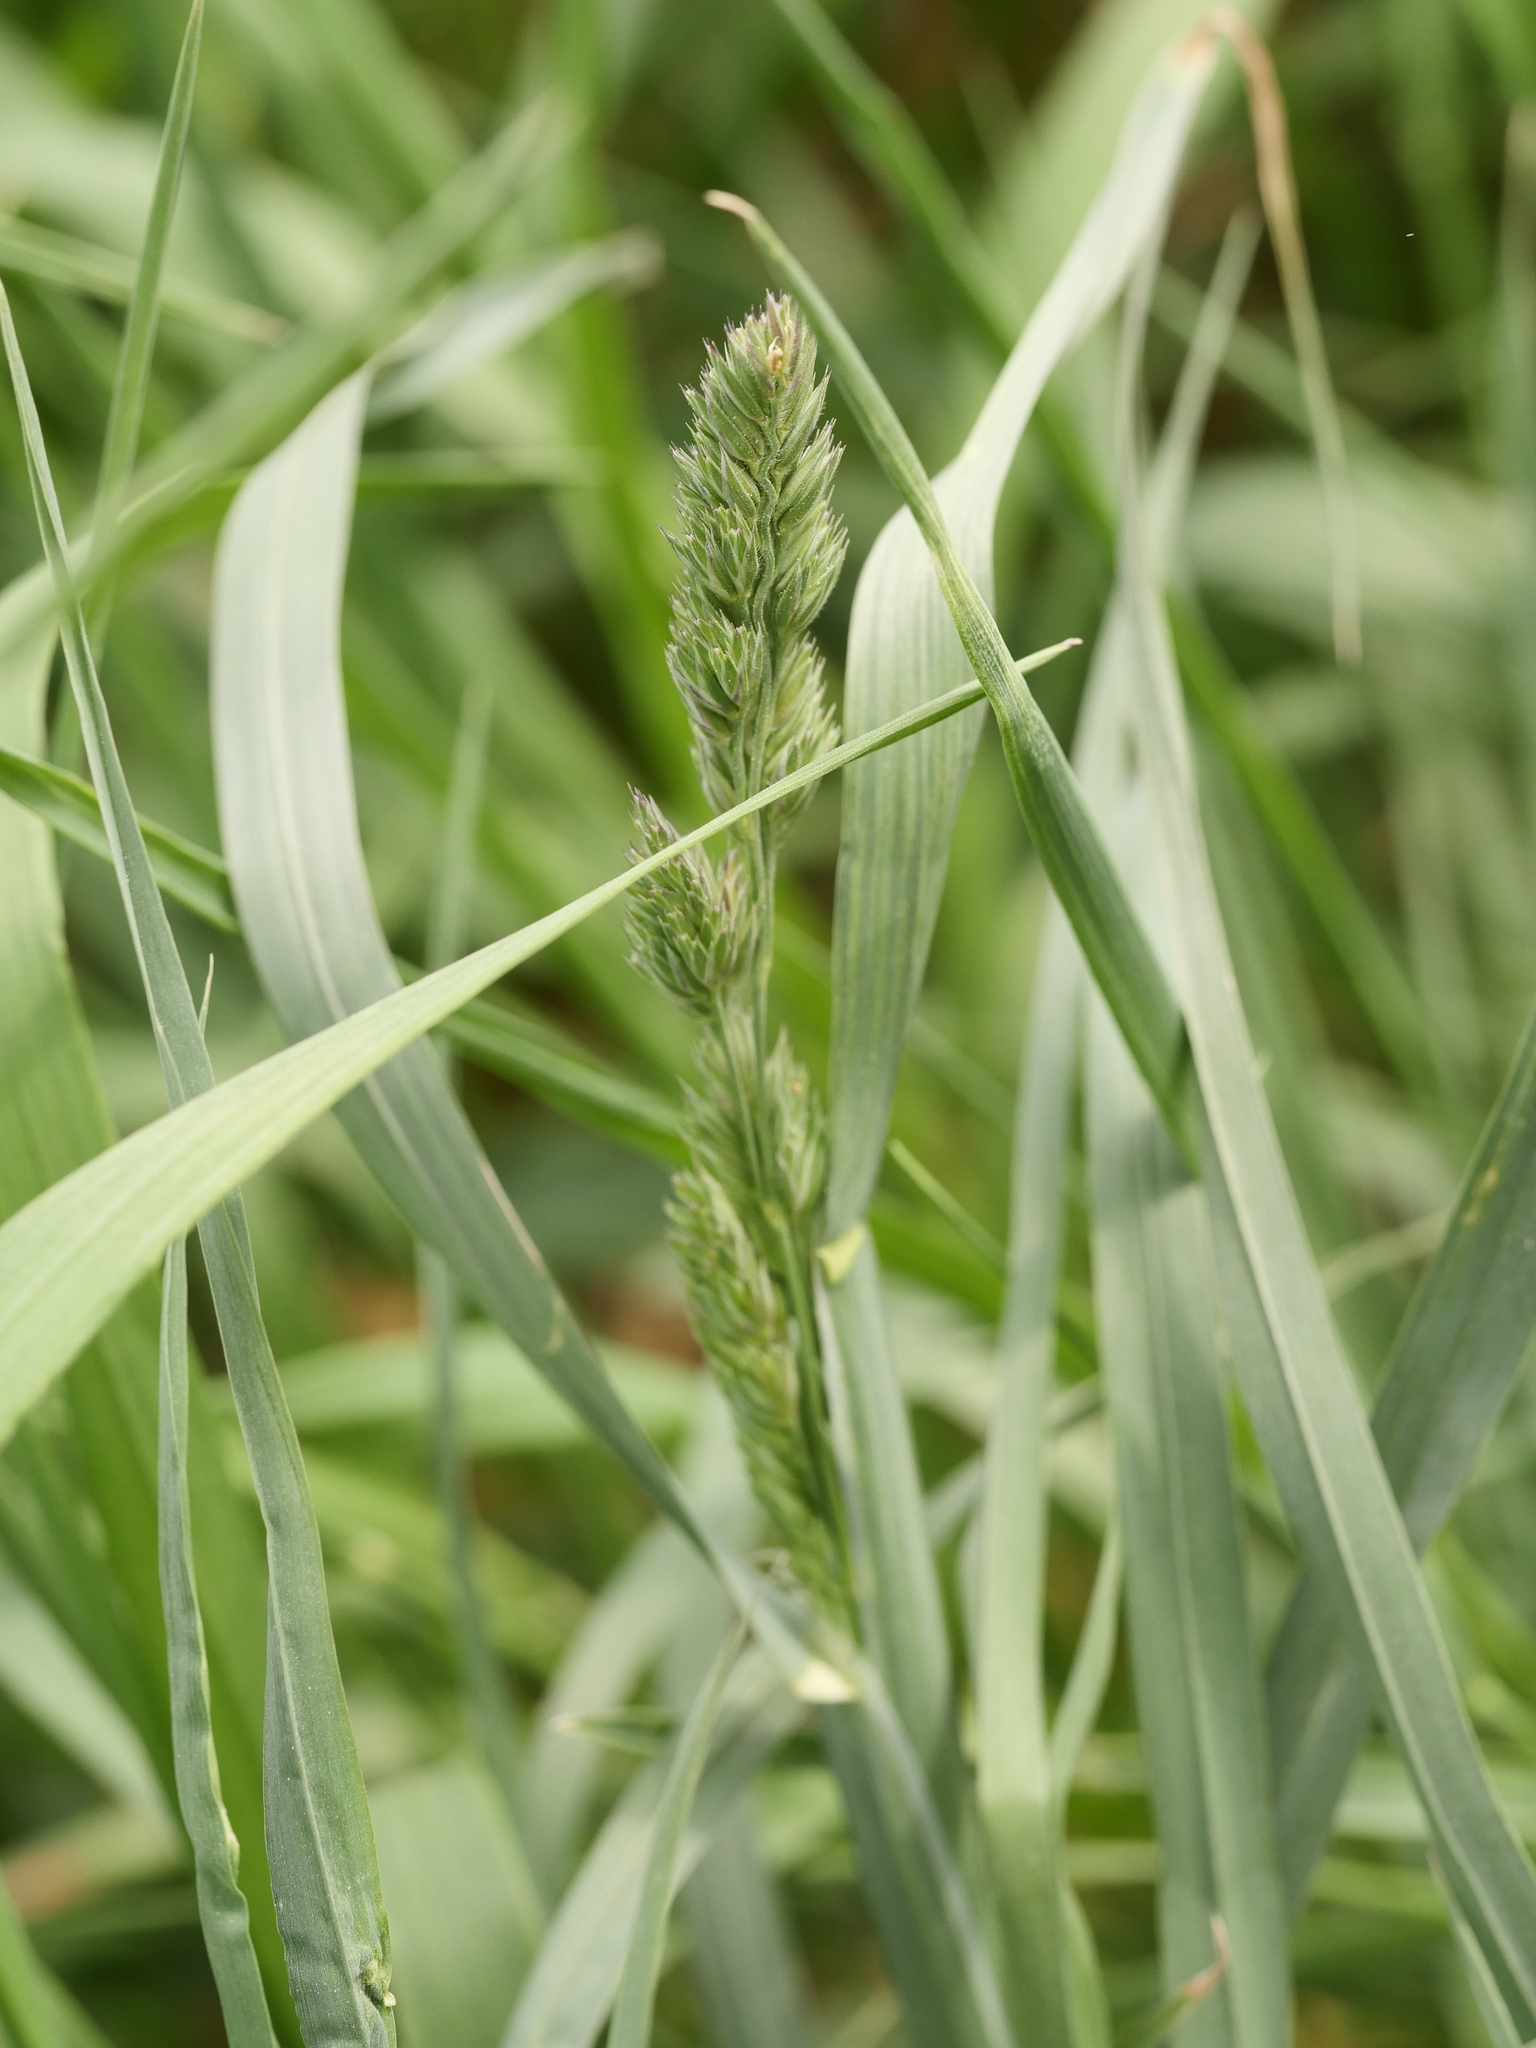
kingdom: Plantae
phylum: Tracheophyta
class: Liliopsida
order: Poales
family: Poaceae
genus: Dactylis
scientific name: Dactylis glomerata
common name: Orchardgrass
